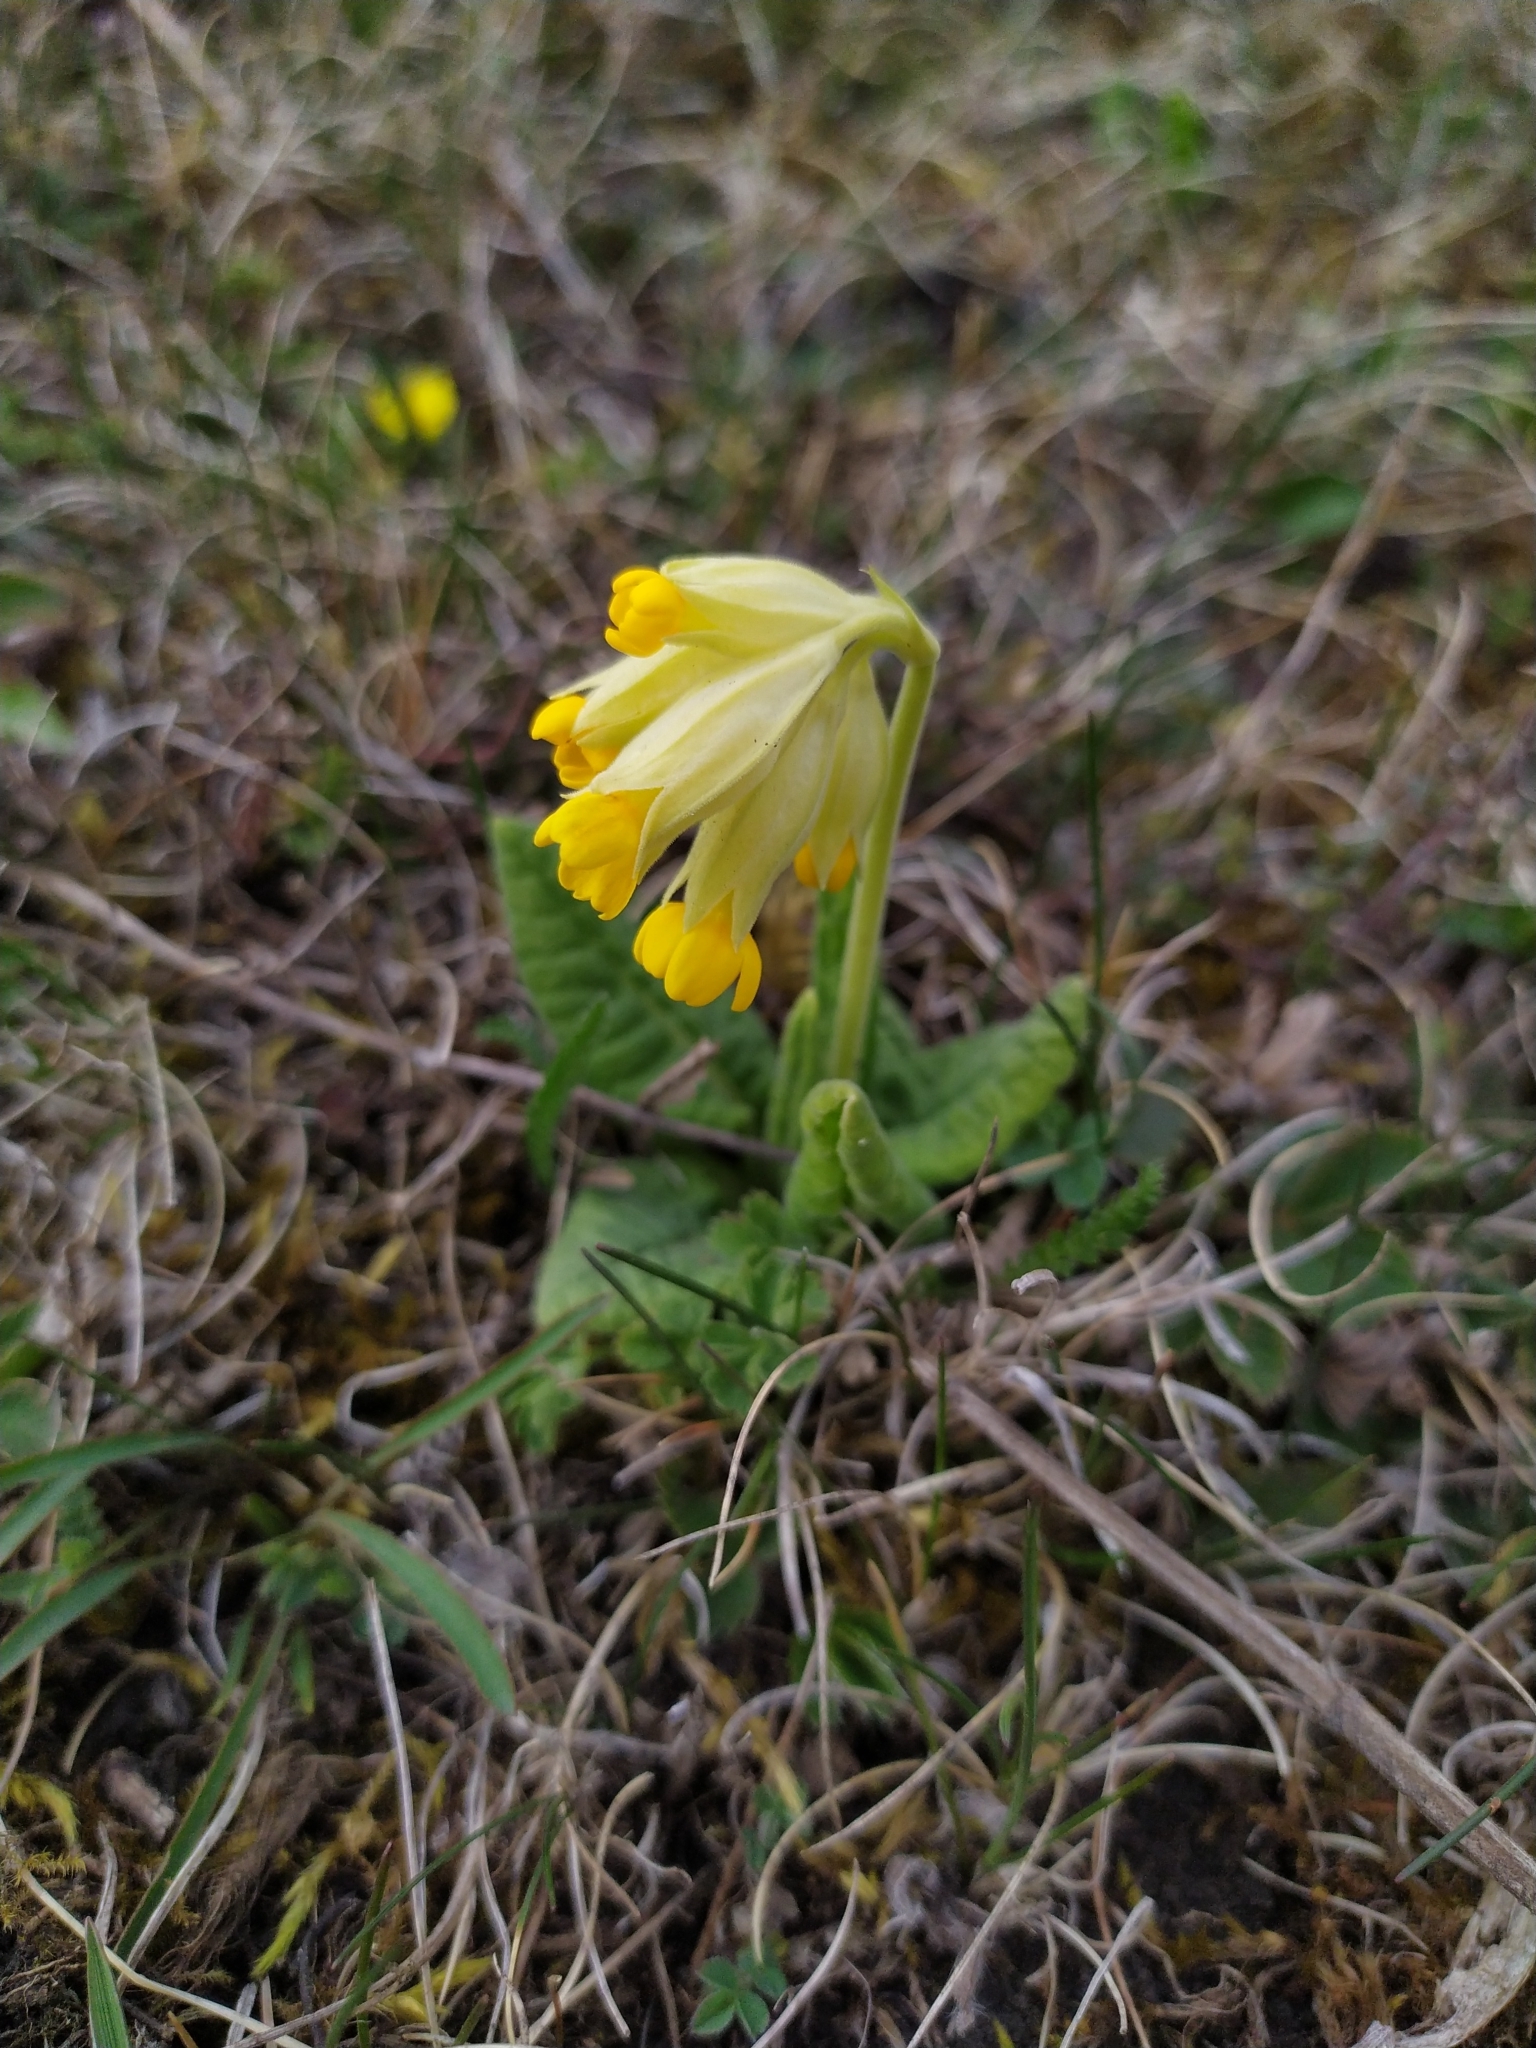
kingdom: Plantae
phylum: Tracheophyta
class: Magnoliopsida
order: Ericales
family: Primulaceae
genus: Primula
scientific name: Primula veris
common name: Cowslip
